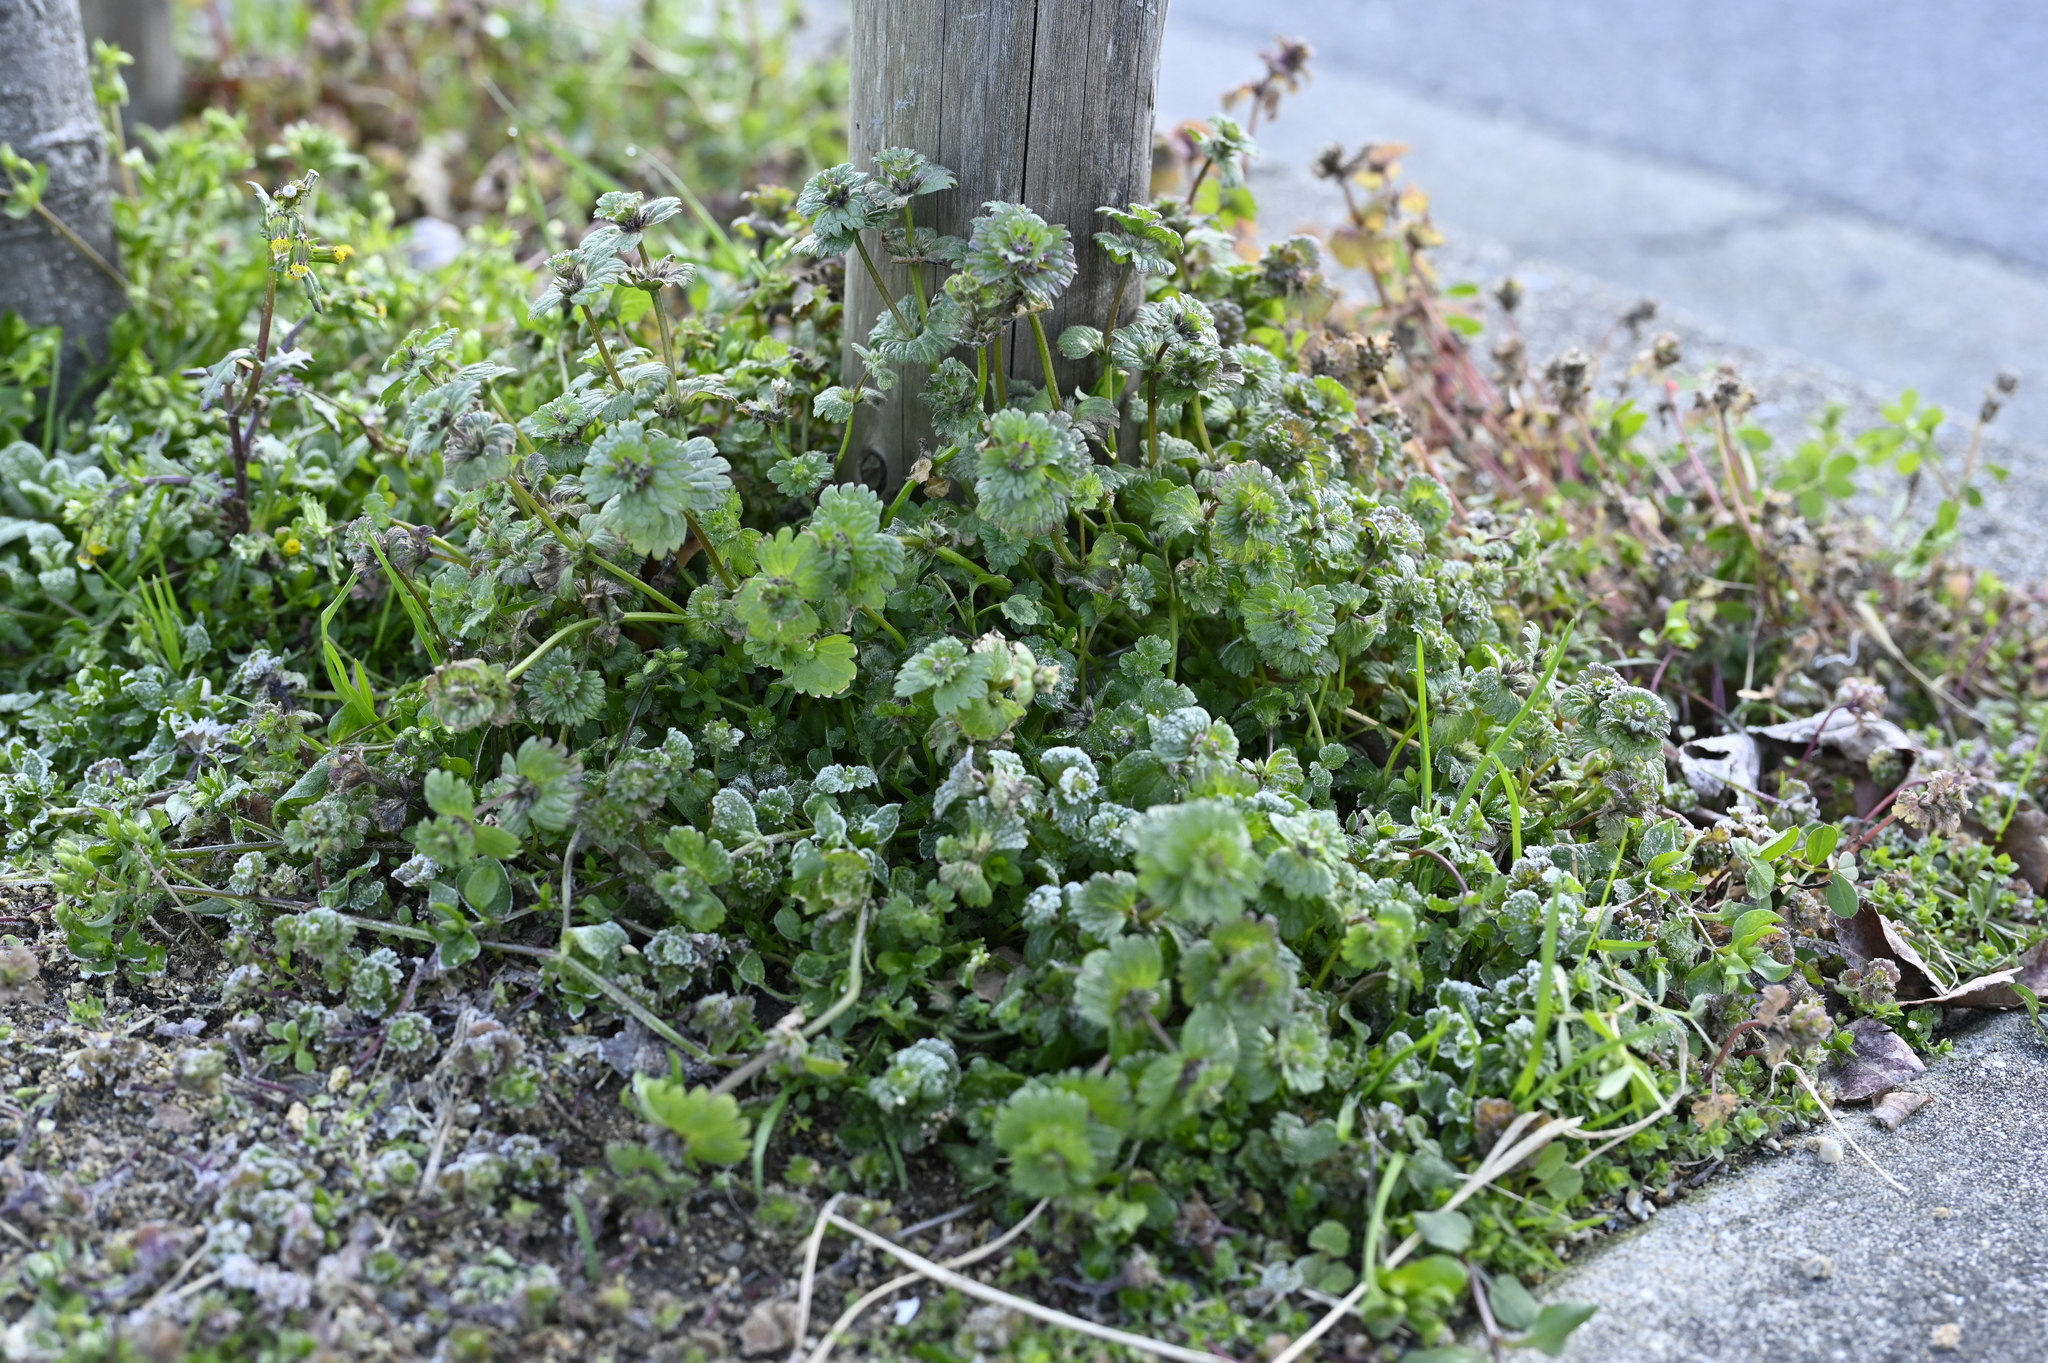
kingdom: Plantae
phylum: Tracheophyta
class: Magnoliopsida
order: Lamiales
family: Lamiaceae
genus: Lamium
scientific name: Lamium amplexicaule
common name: Henbit dead-nettle
